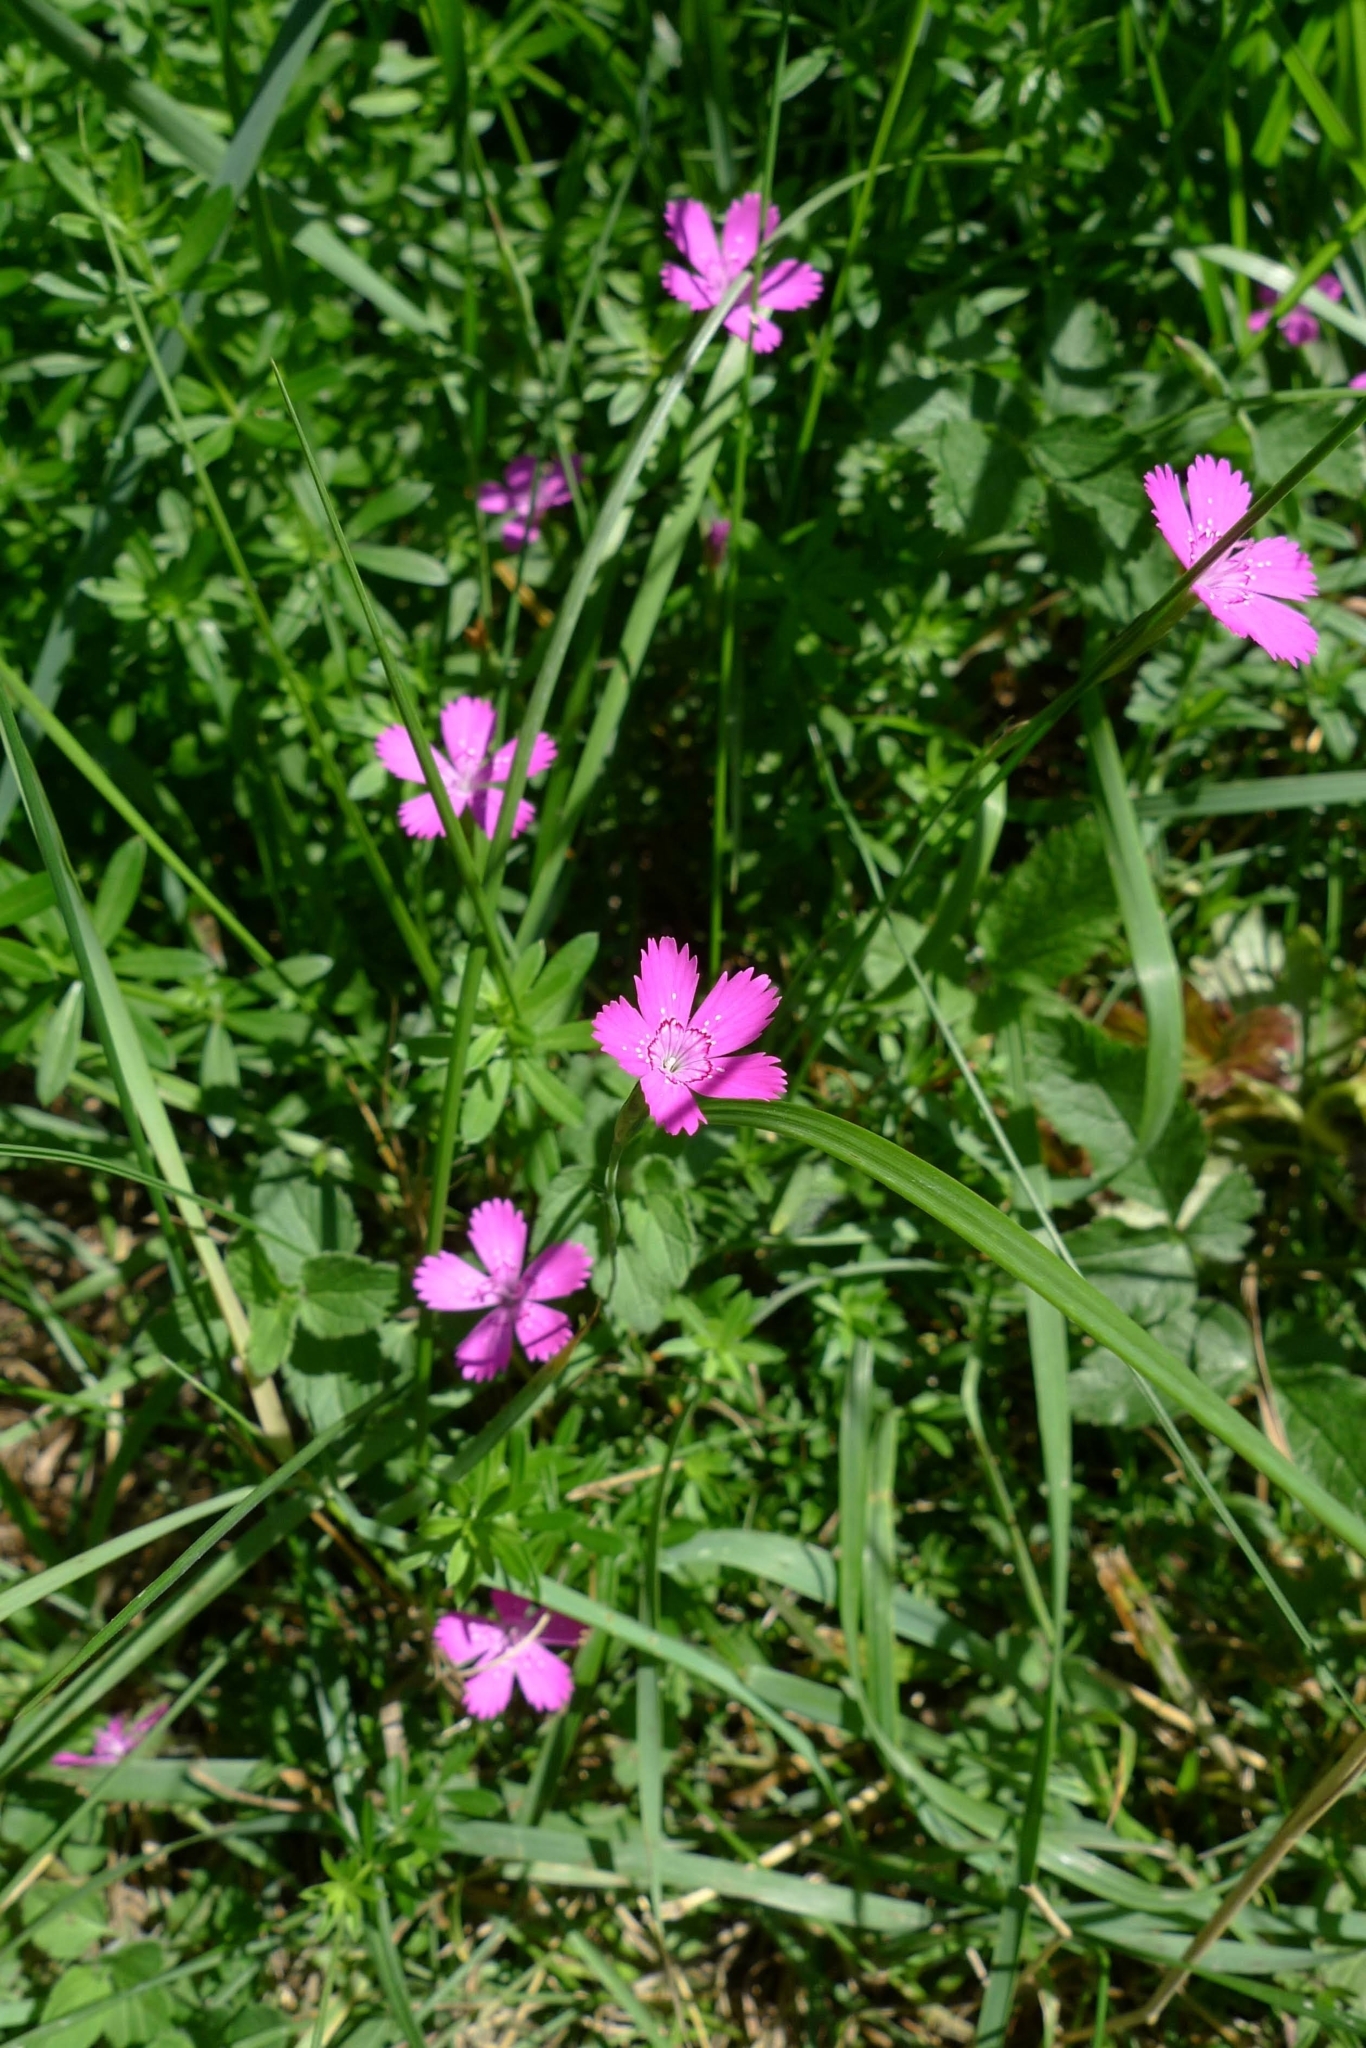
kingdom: Plantae
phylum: Tracheophyta
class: Magnoliopsida
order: Caryophyllales
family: Caryophyllaceae
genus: Dianthus
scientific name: Dianthus deltoides
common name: Maiden pink
